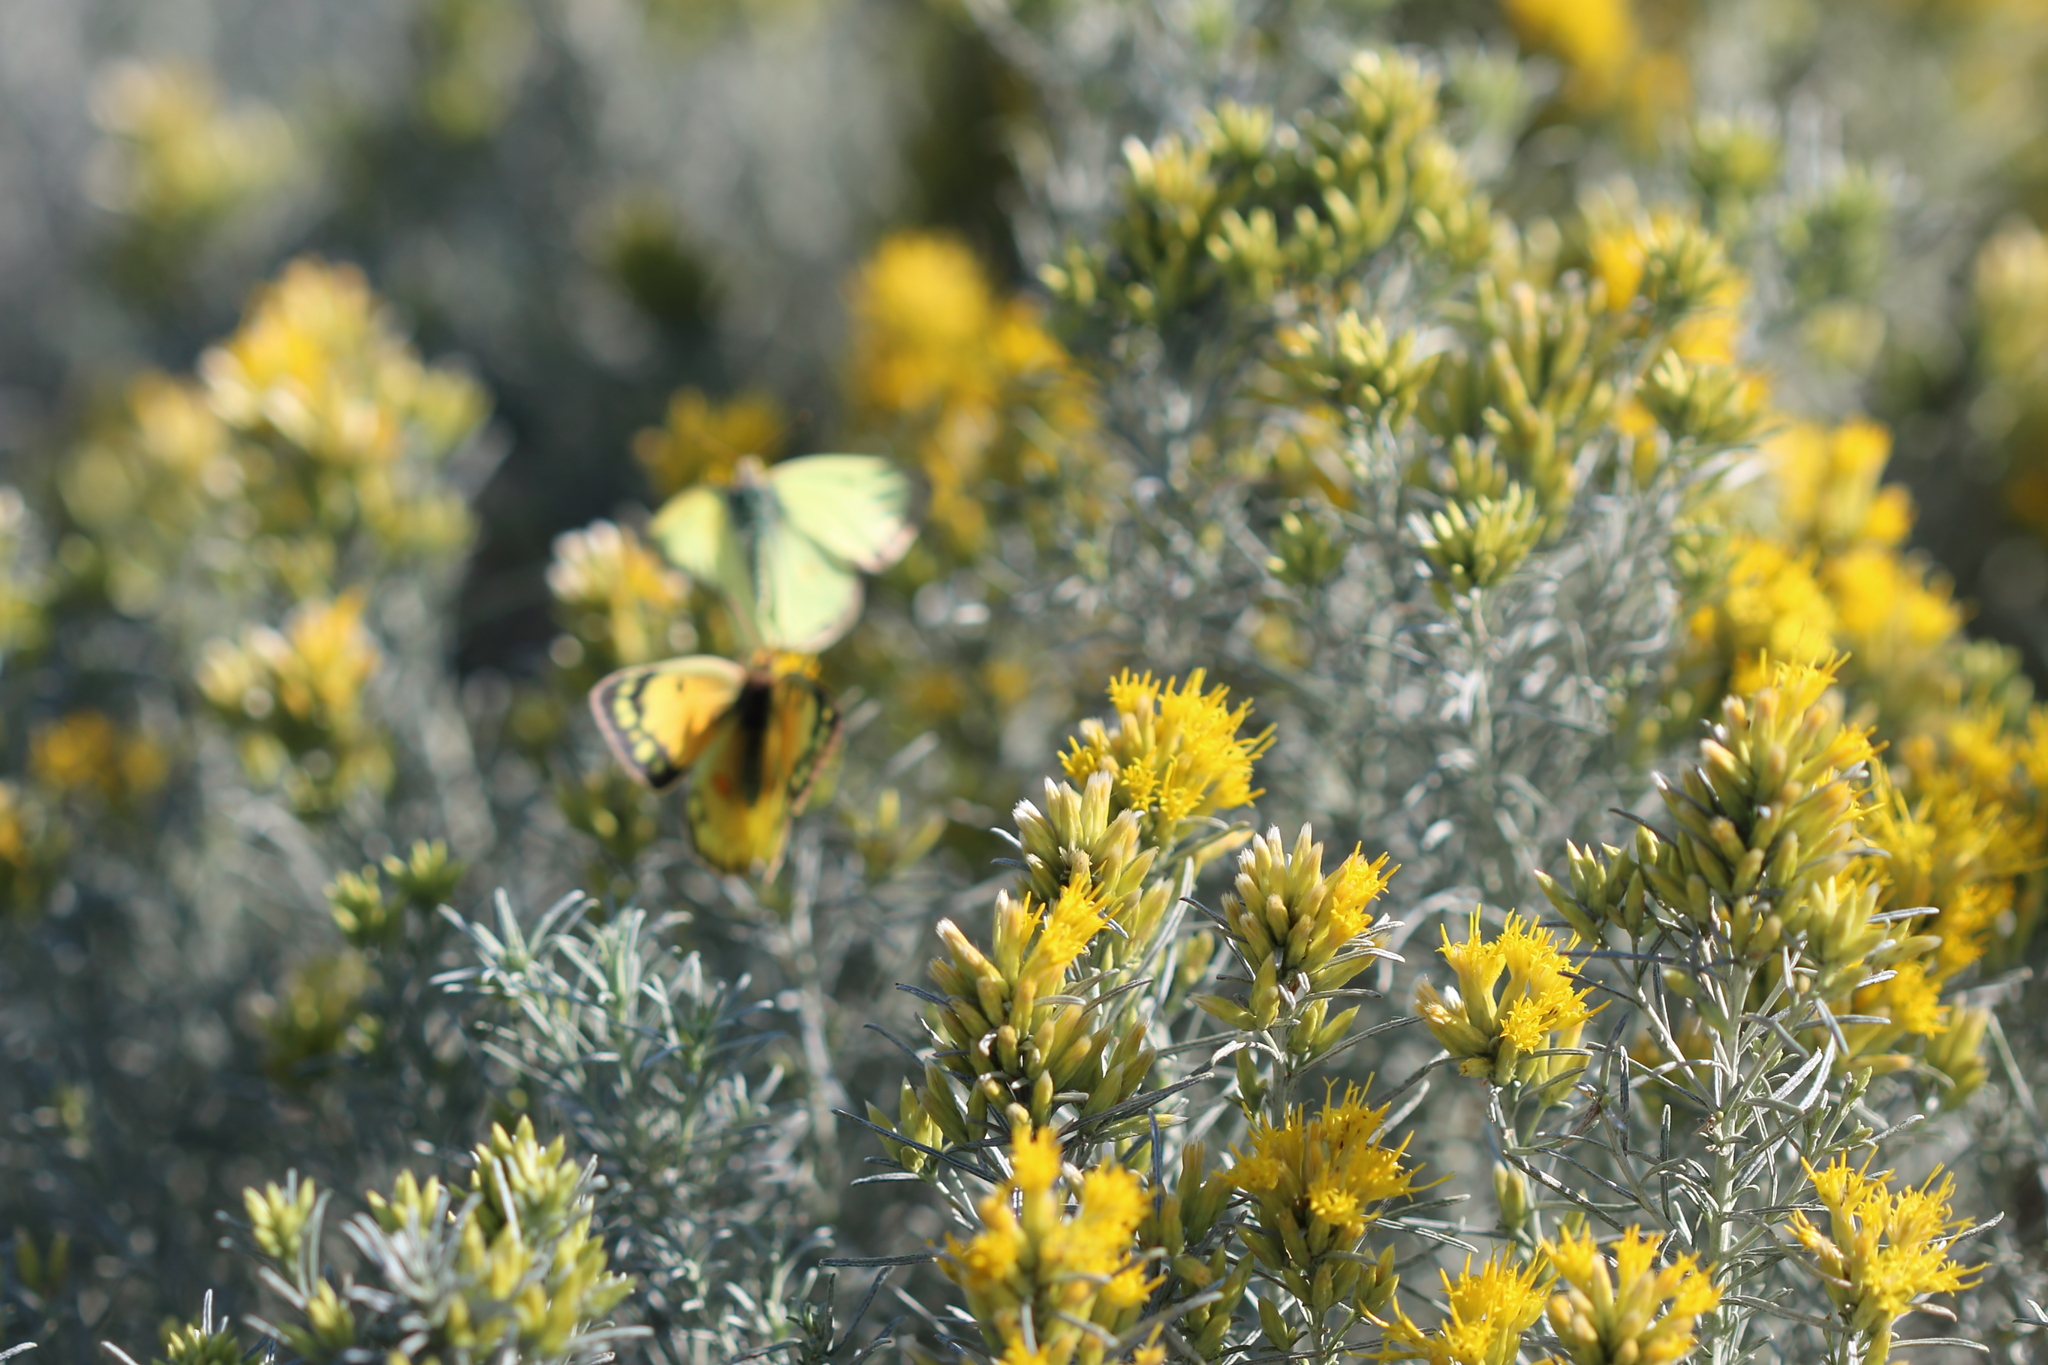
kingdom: Animalia
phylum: Arthropoda
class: Insecta
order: Lepidoptera
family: Pieridae
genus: Colias
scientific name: Colias eurytheme
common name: Alfalfa butterfly
